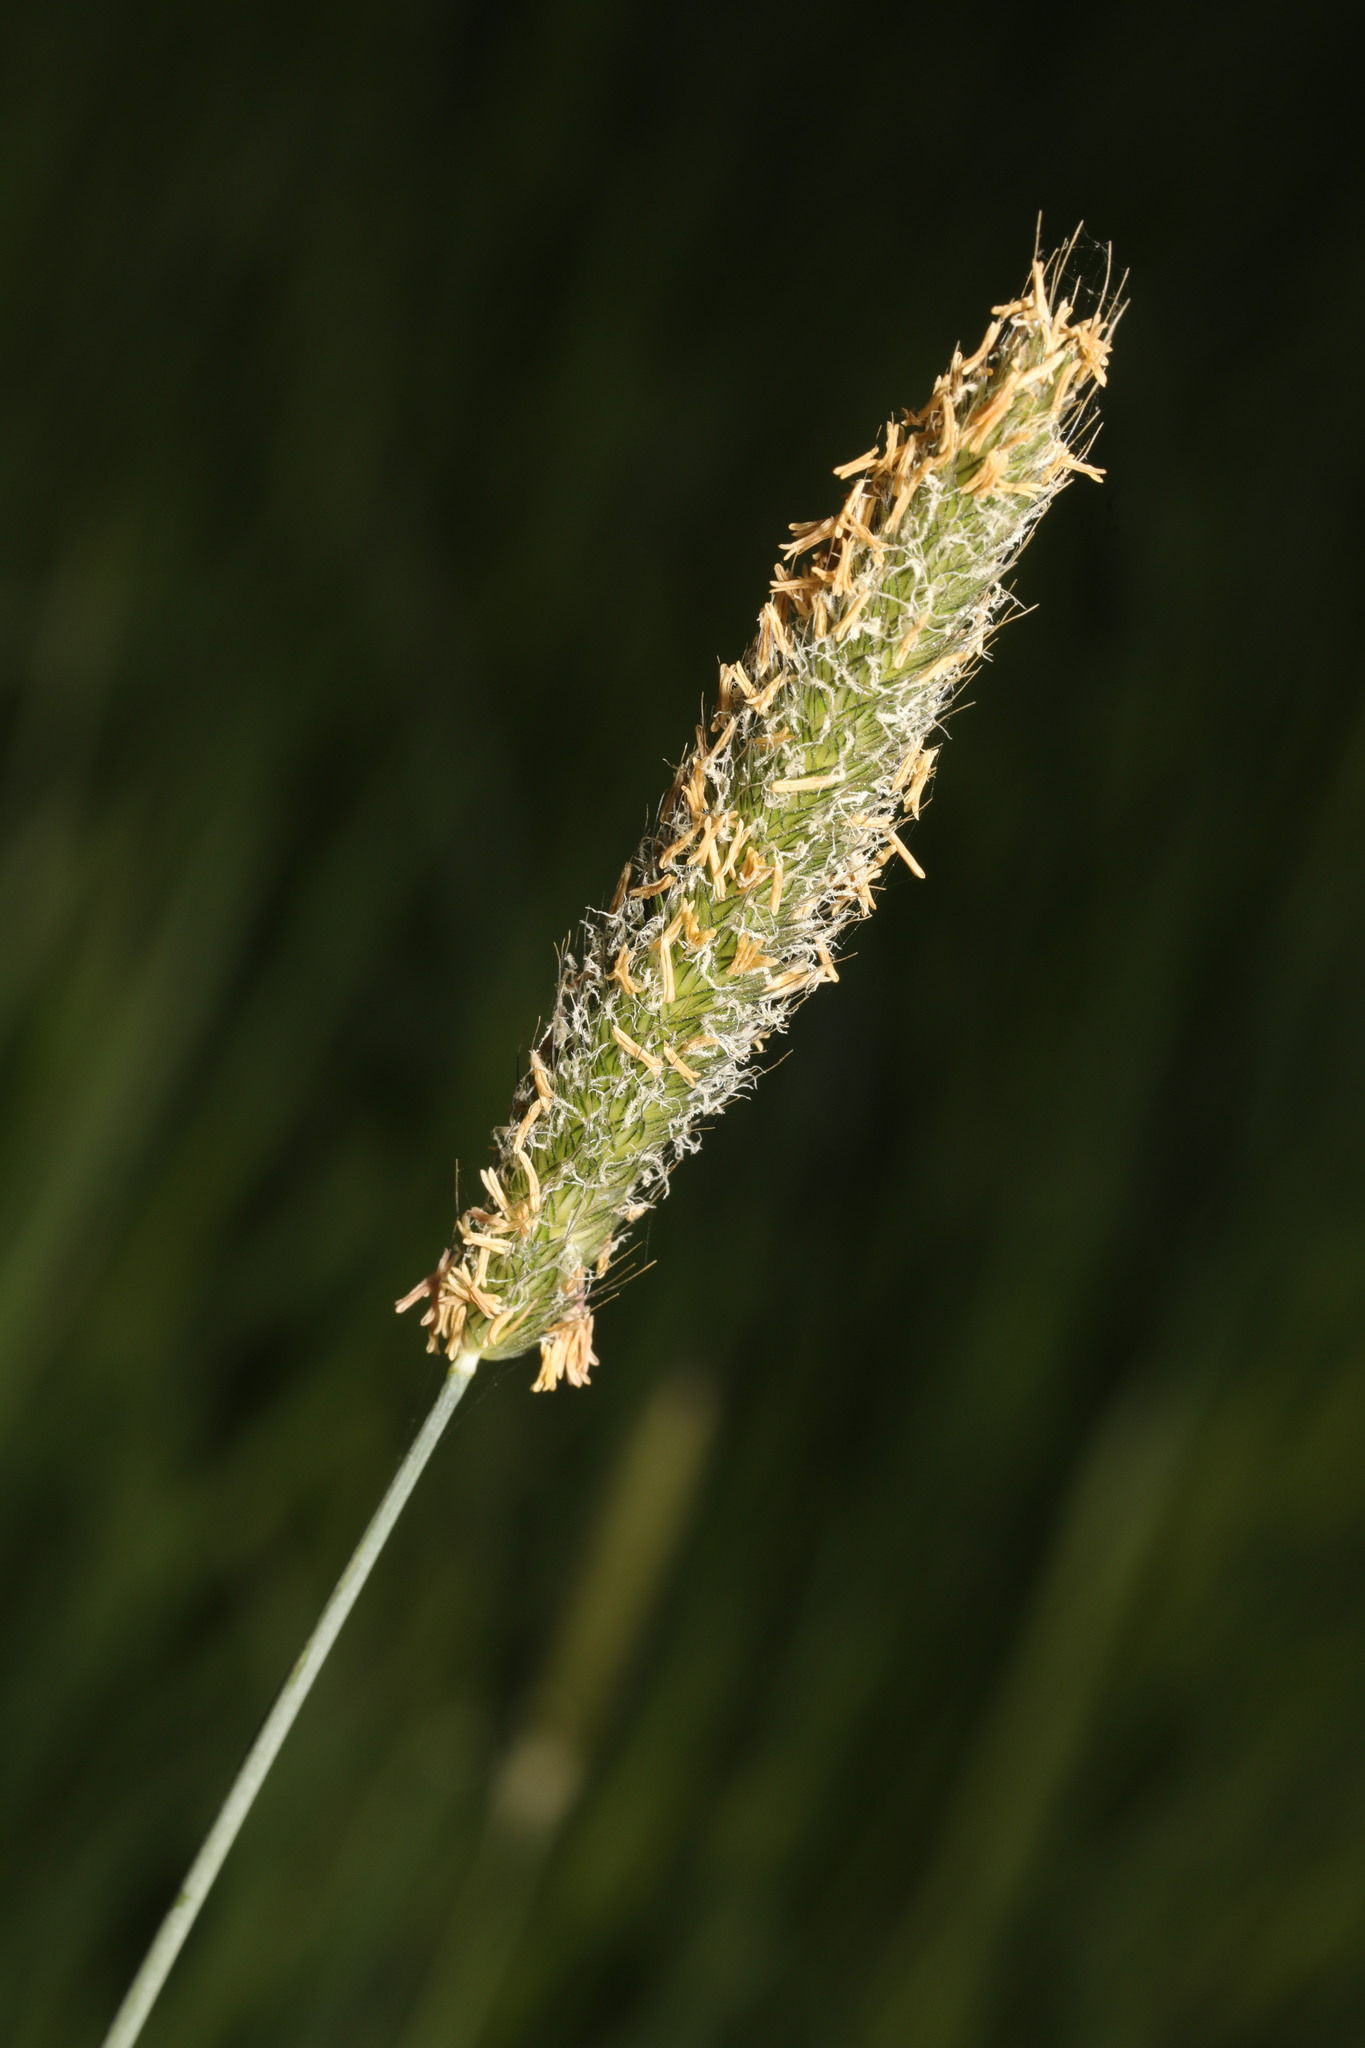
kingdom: Plantae
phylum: Tracheophyta
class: Liliopsida
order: Poales
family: Poaceae
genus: Alopecurus
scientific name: Alopecurus pratensis
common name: Meadow foxtail
